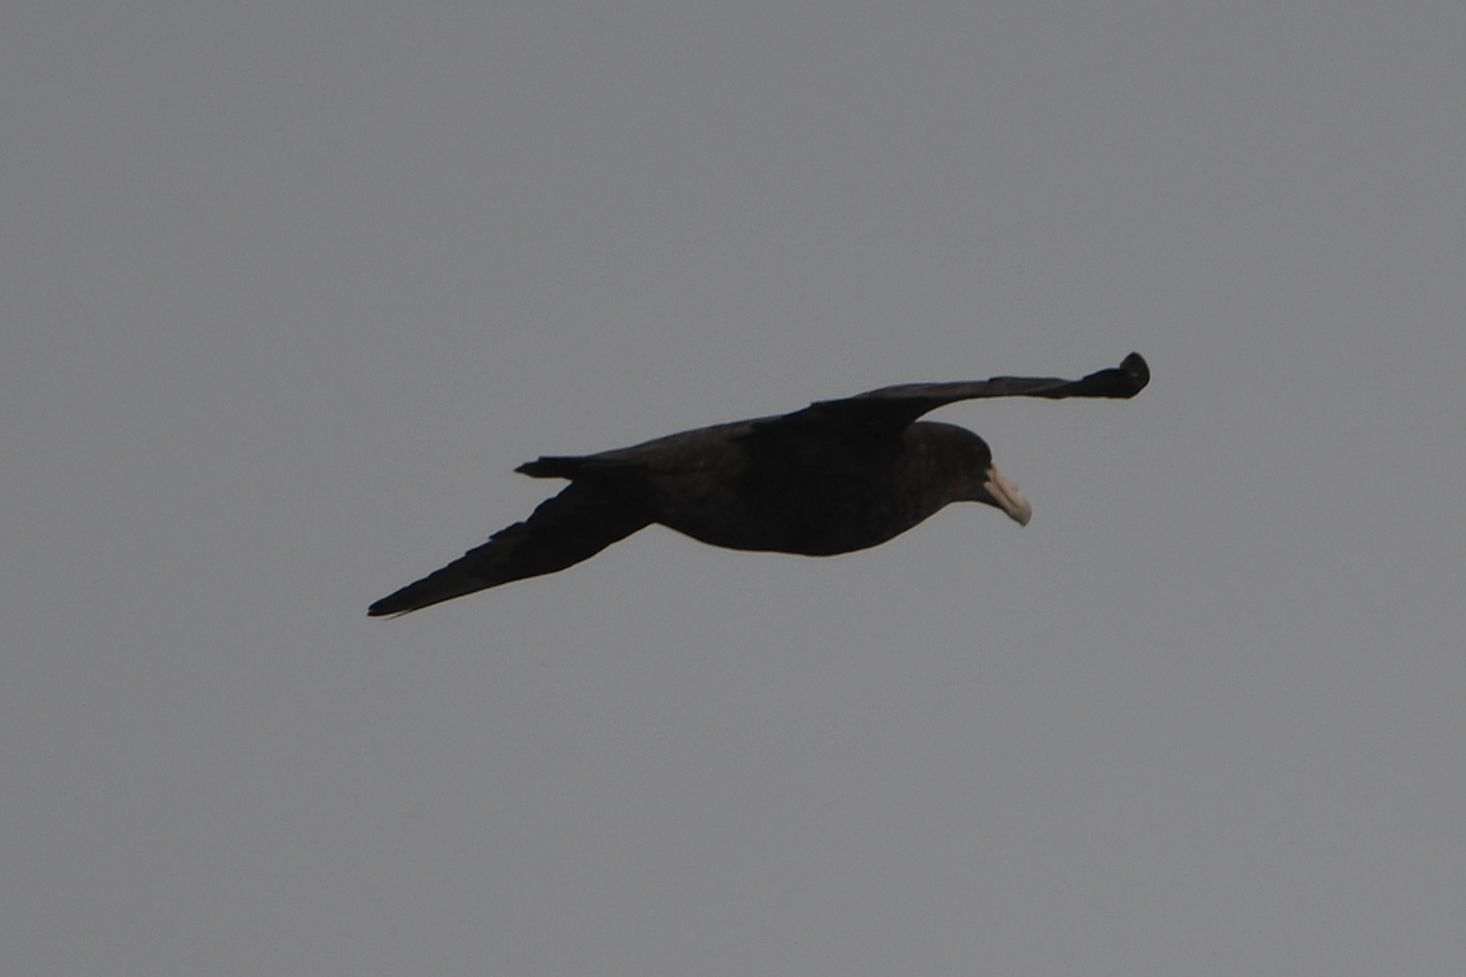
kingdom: Animalia
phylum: Chordata
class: Aves
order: Procellariiformes
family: Procellariidae
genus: Macronectes
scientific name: Macronectes giganteus
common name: Southern giant petrel
